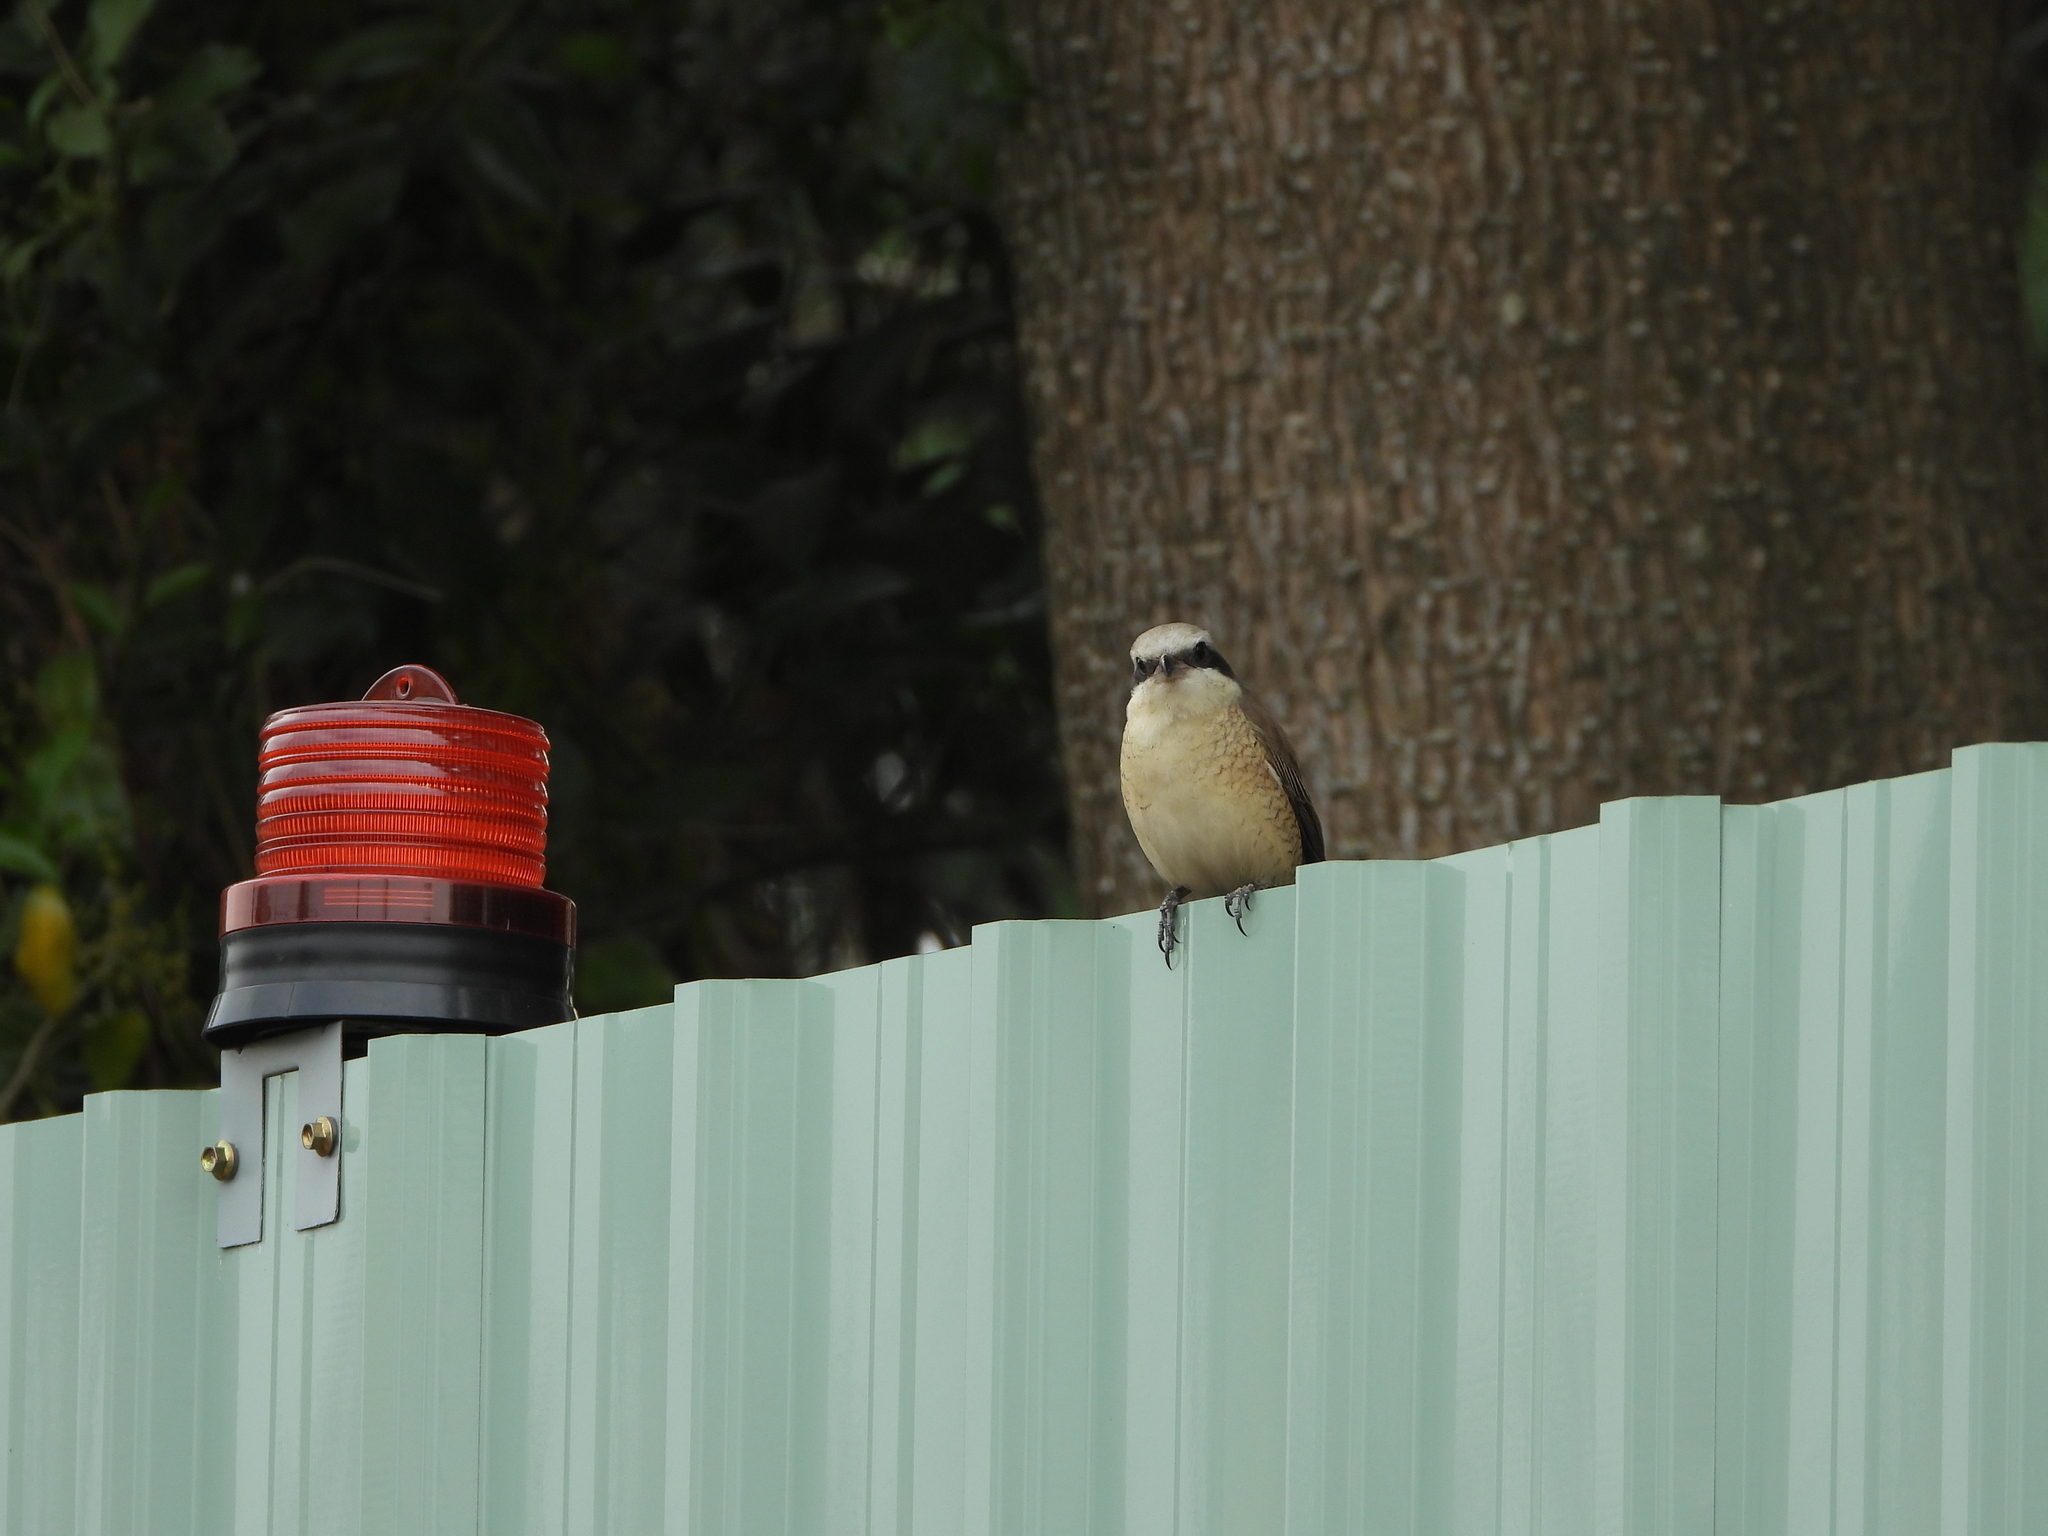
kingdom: Animalia
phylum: Chordata
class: Aves
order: Passeriformes
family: Laniidae
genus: Lanius
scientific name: Lanius cristatus
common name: Brown shrike
